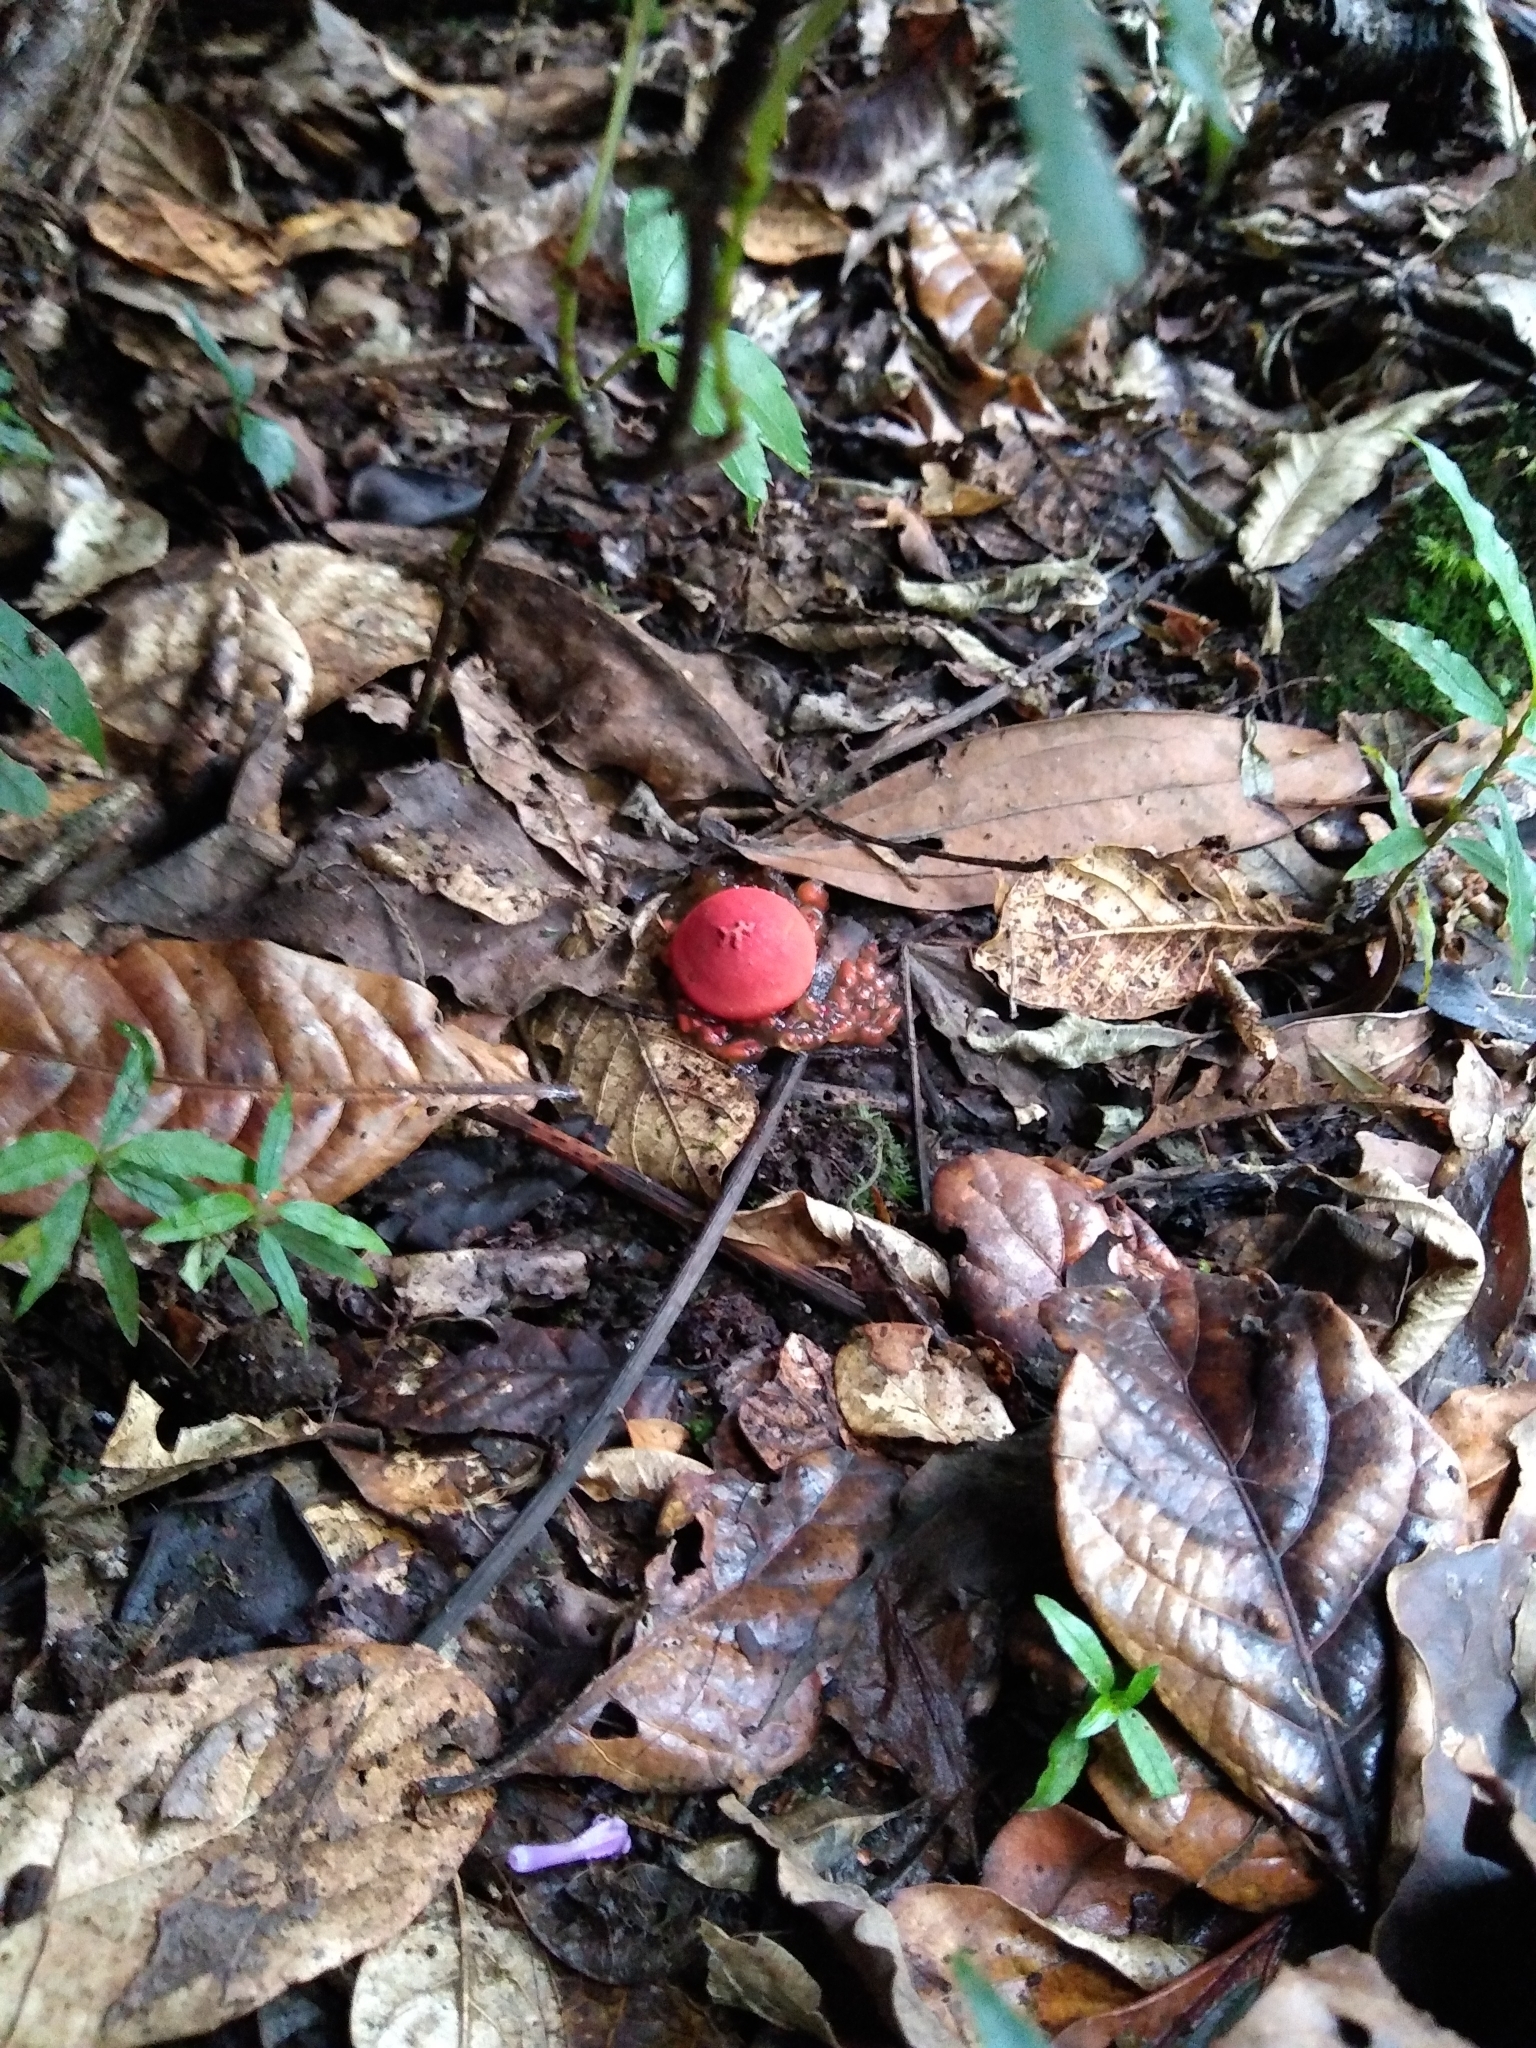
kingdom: Fungi
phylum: Basidiomycota
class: Agaricomycetes
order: Boletales
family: Calostomataceae
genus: Calostoma
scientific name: Calostoma cinnabarinum
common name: Stalked puffball-in-aspic
